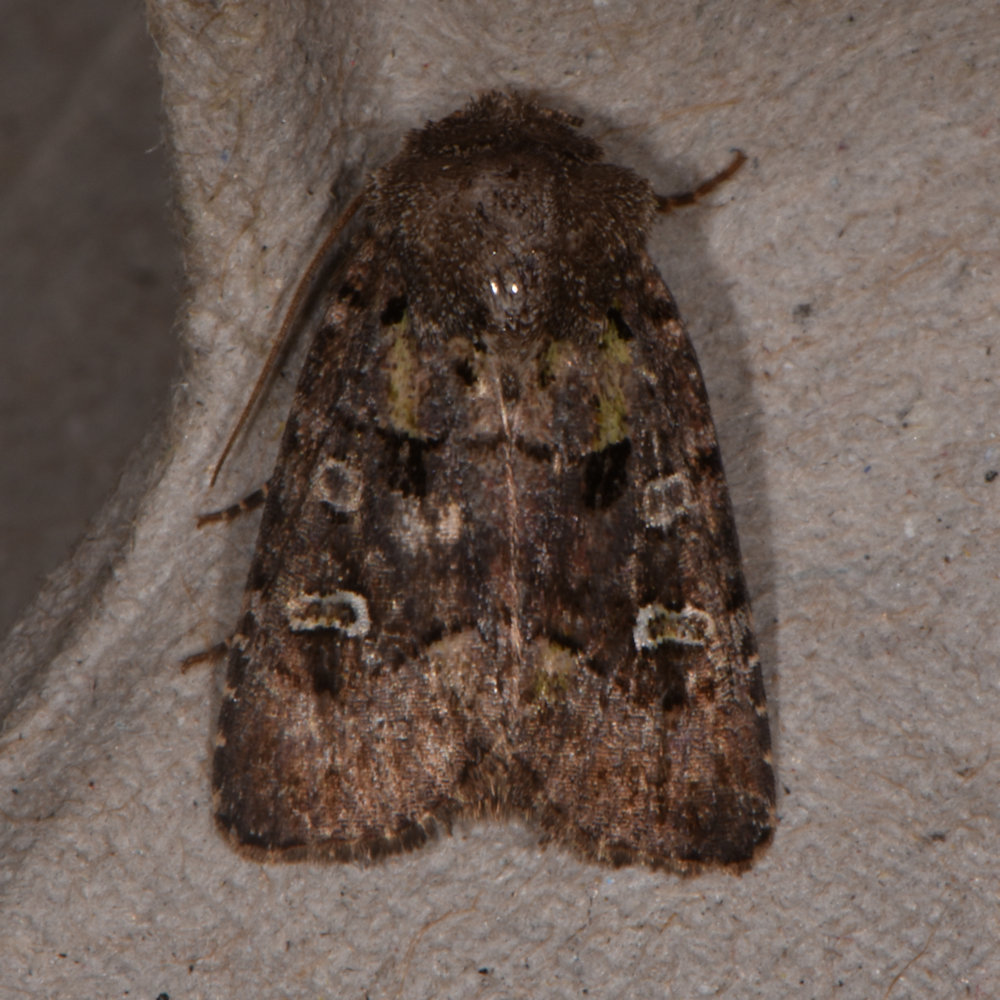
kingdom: Animalia
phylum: Arthropoda
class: Insecta
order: Lepidoptera
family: Noctuidae
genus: Lacinipolia
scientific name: Lacinipolia renigera
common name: Kidney-spotted minor
